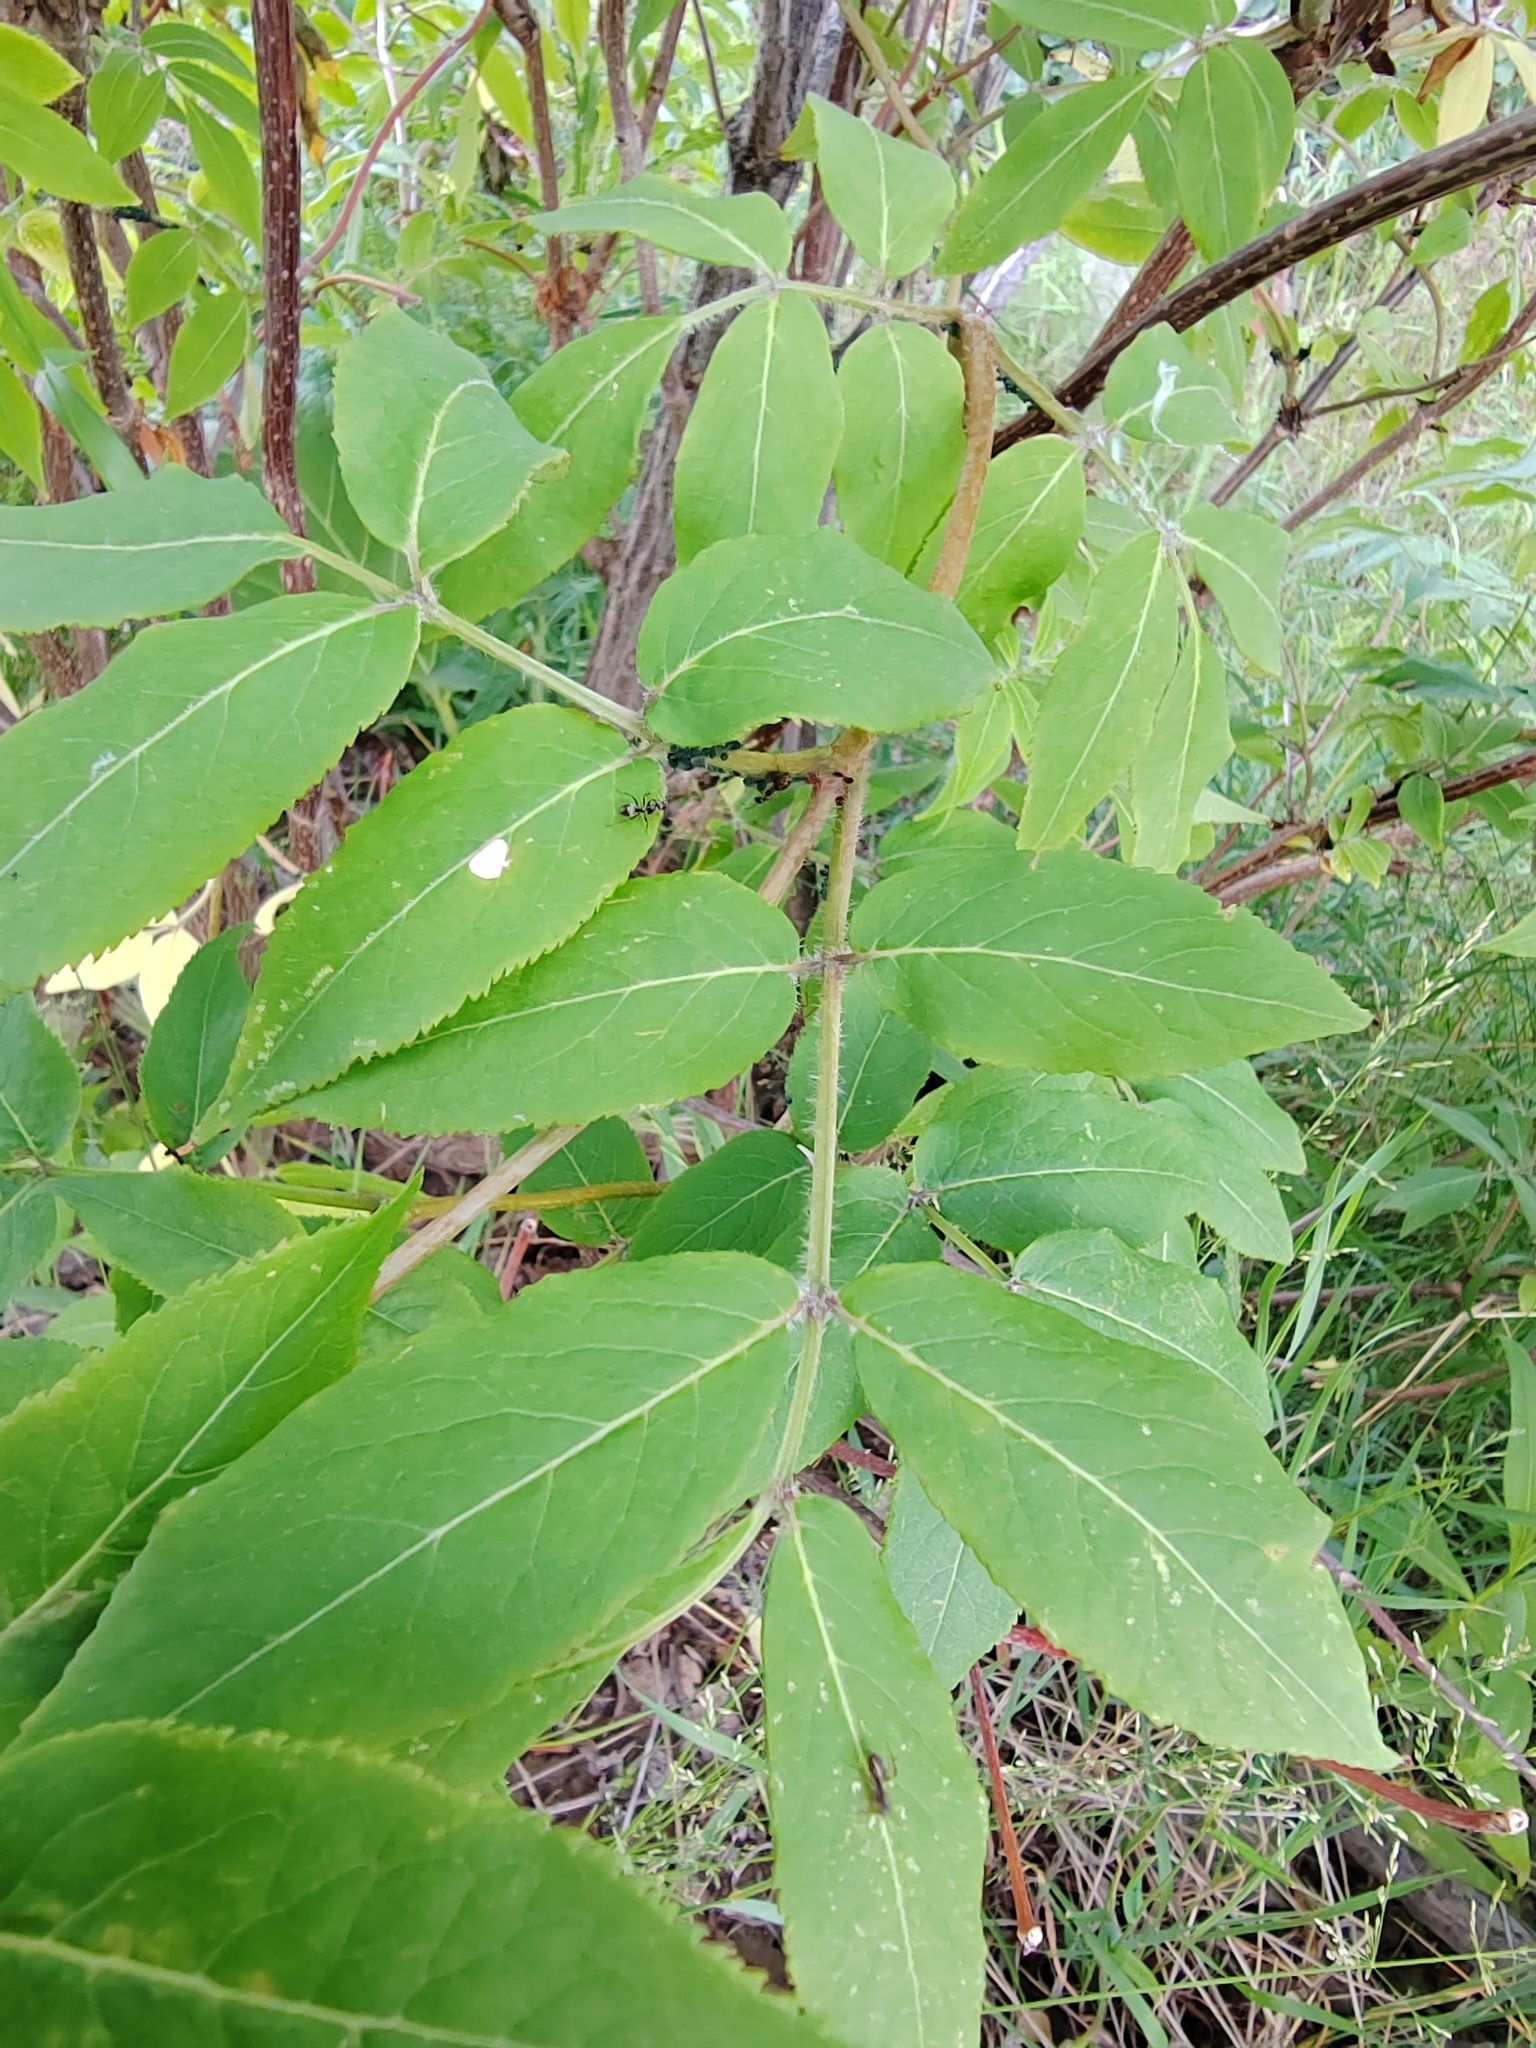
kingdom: Plantae
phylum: Tracheophyta
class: Magnoliopsida
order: Dipsacales
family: Viburnaceae
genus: Sambucus
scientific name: Sambucus sibirica
